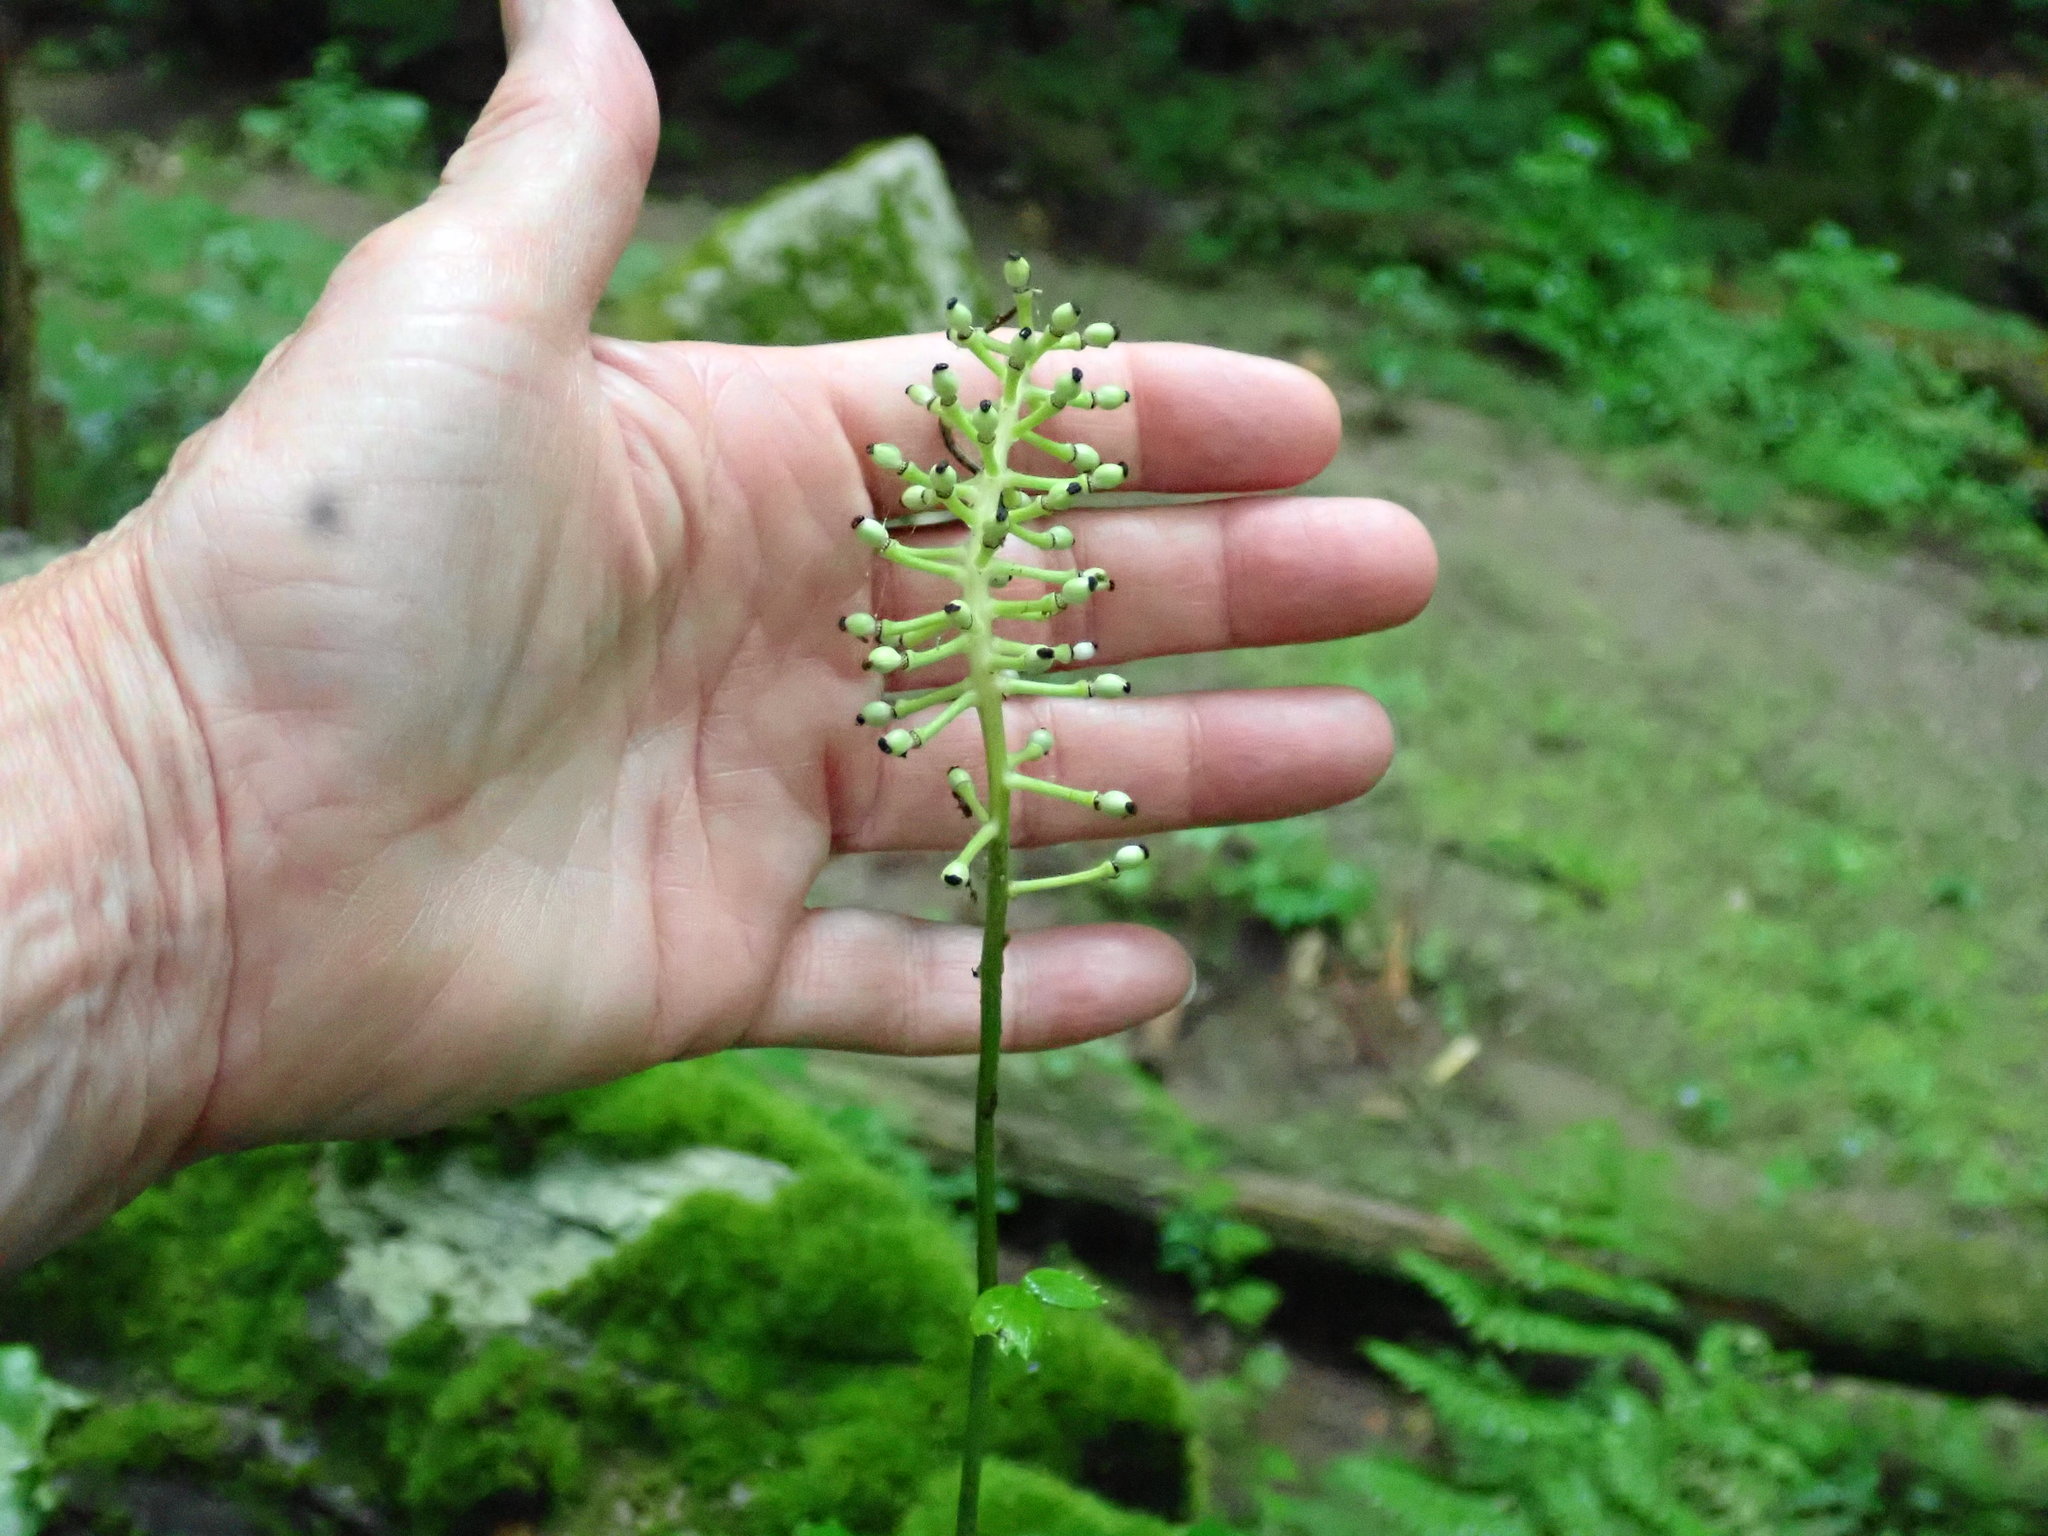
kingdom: Plantae
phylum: Tracheophyta
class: Magnoliopsida
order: Ranunculales
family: Ranunculaceae
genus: Actaea
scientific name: Actaea pachypoda
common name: Doll's-eyes
